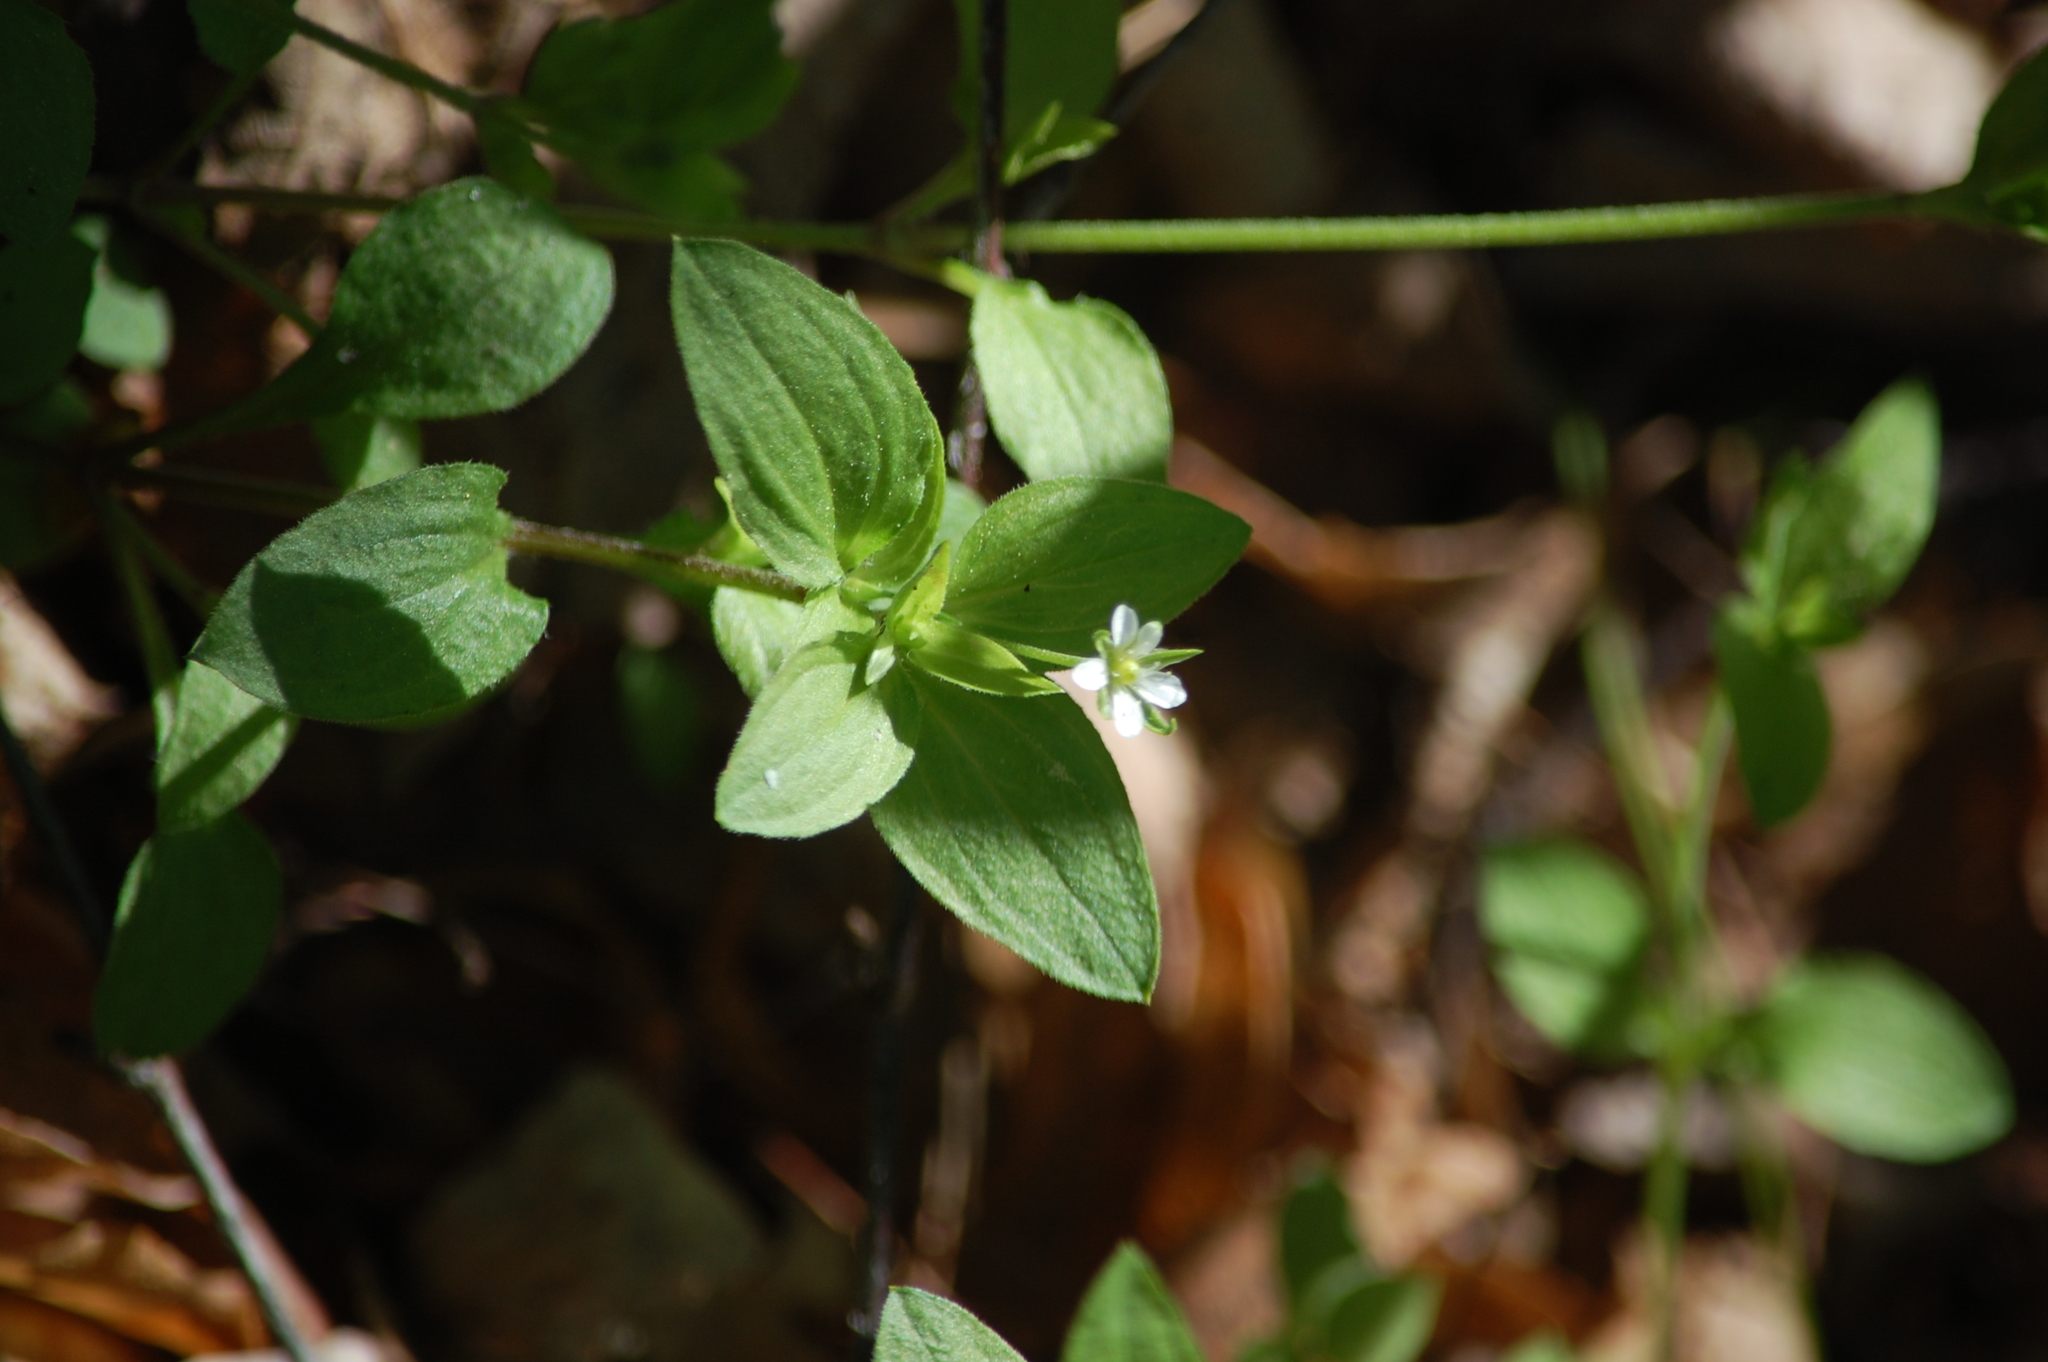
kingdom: Plantae
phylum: Tracheophyta
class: Magnoliopsida
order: Caryophyllales
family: Caryophyllaceae
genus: Moehringia
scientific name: Moehringia trinervia
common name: Three-nerved sandwort
